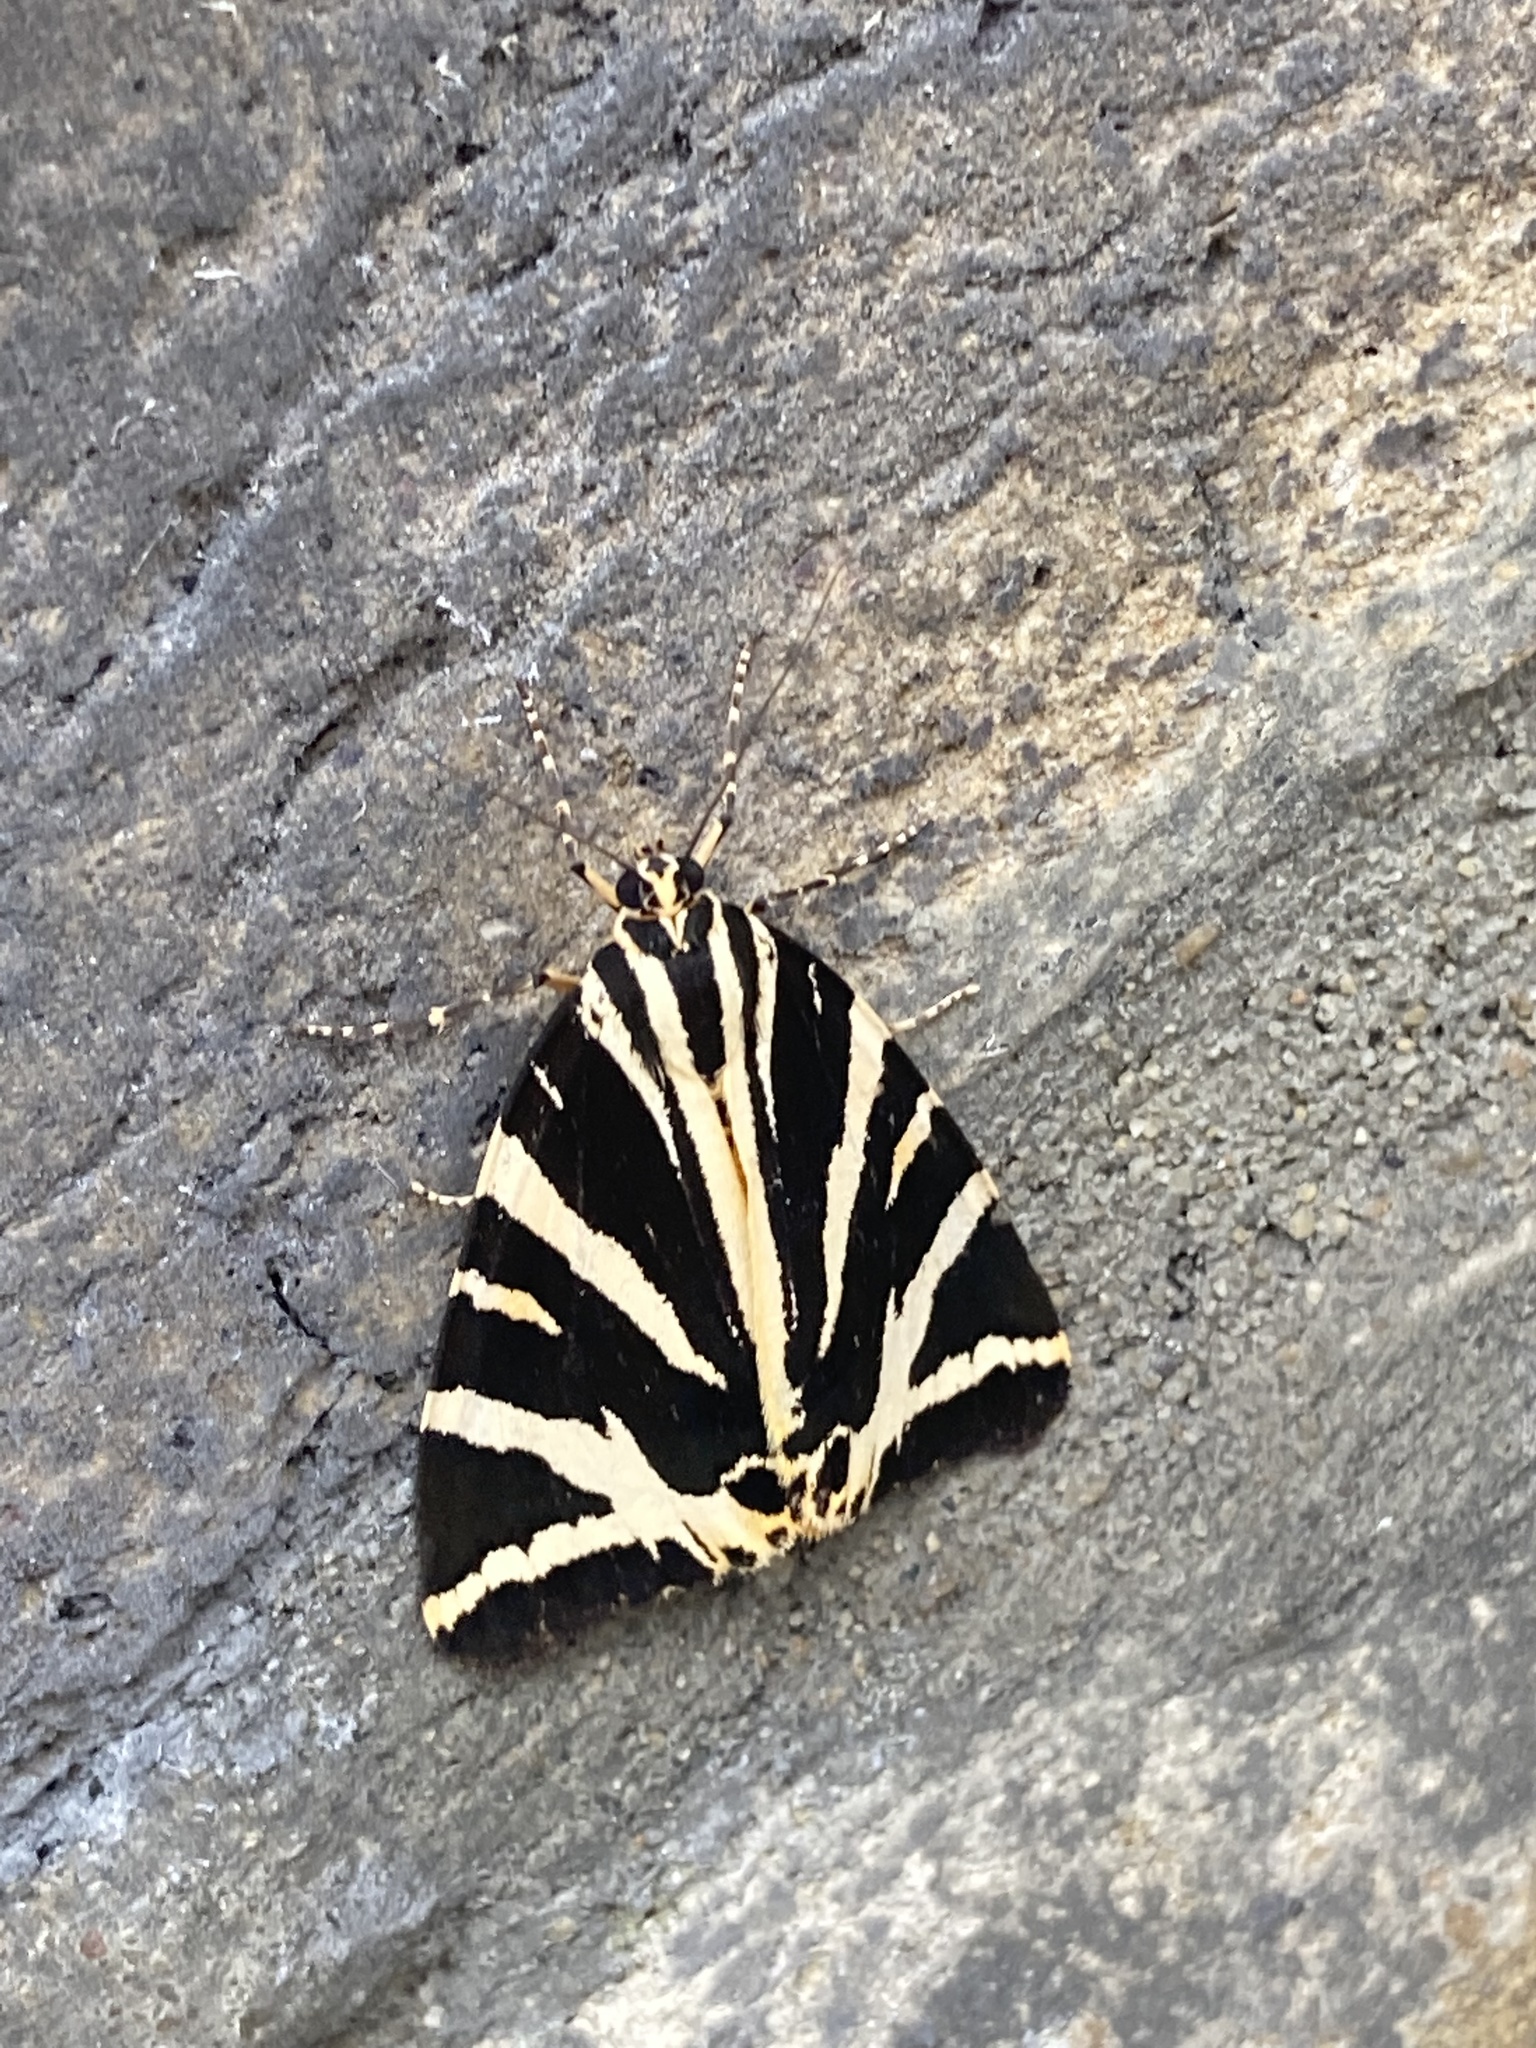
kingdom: Animalia
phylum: Arthropoda
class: Insecta
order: Lepidoptera
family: Erebidae
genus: Euplagia
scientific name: Euplagia quadripunctaria
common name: Jersey tiger
